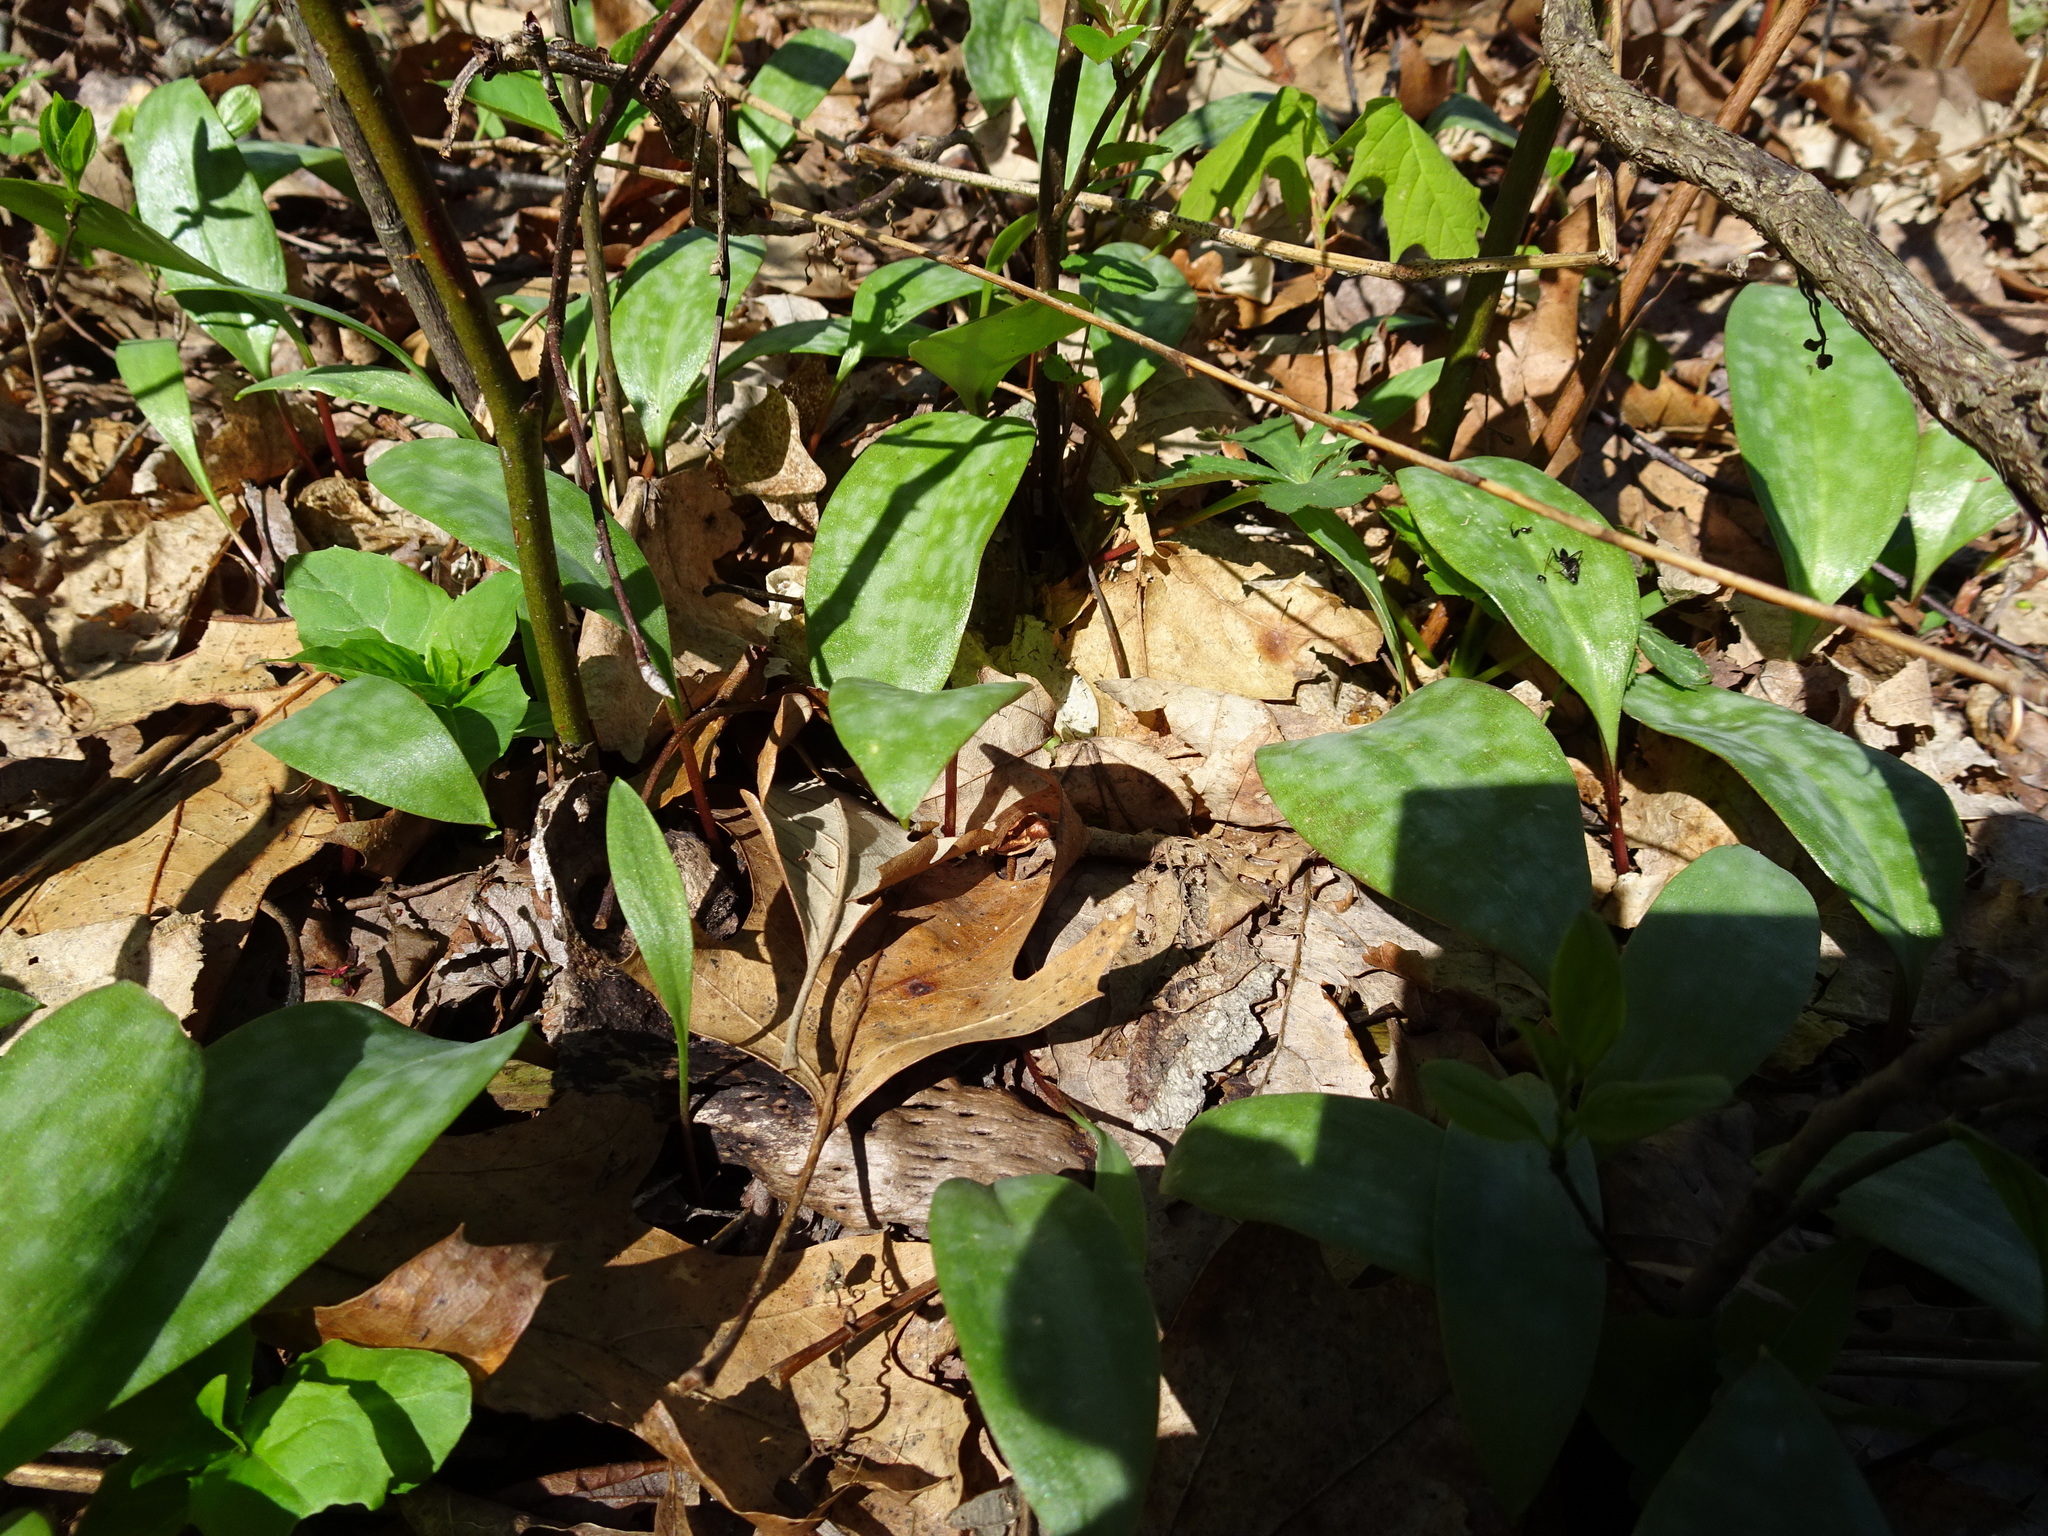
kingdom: Plantae
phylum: Tracheophyta
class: Liliopsida
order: Liliales
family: Liliaceae
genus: Erythronium
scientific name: Erythronium americanum
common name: Yellow adder's-tongue
